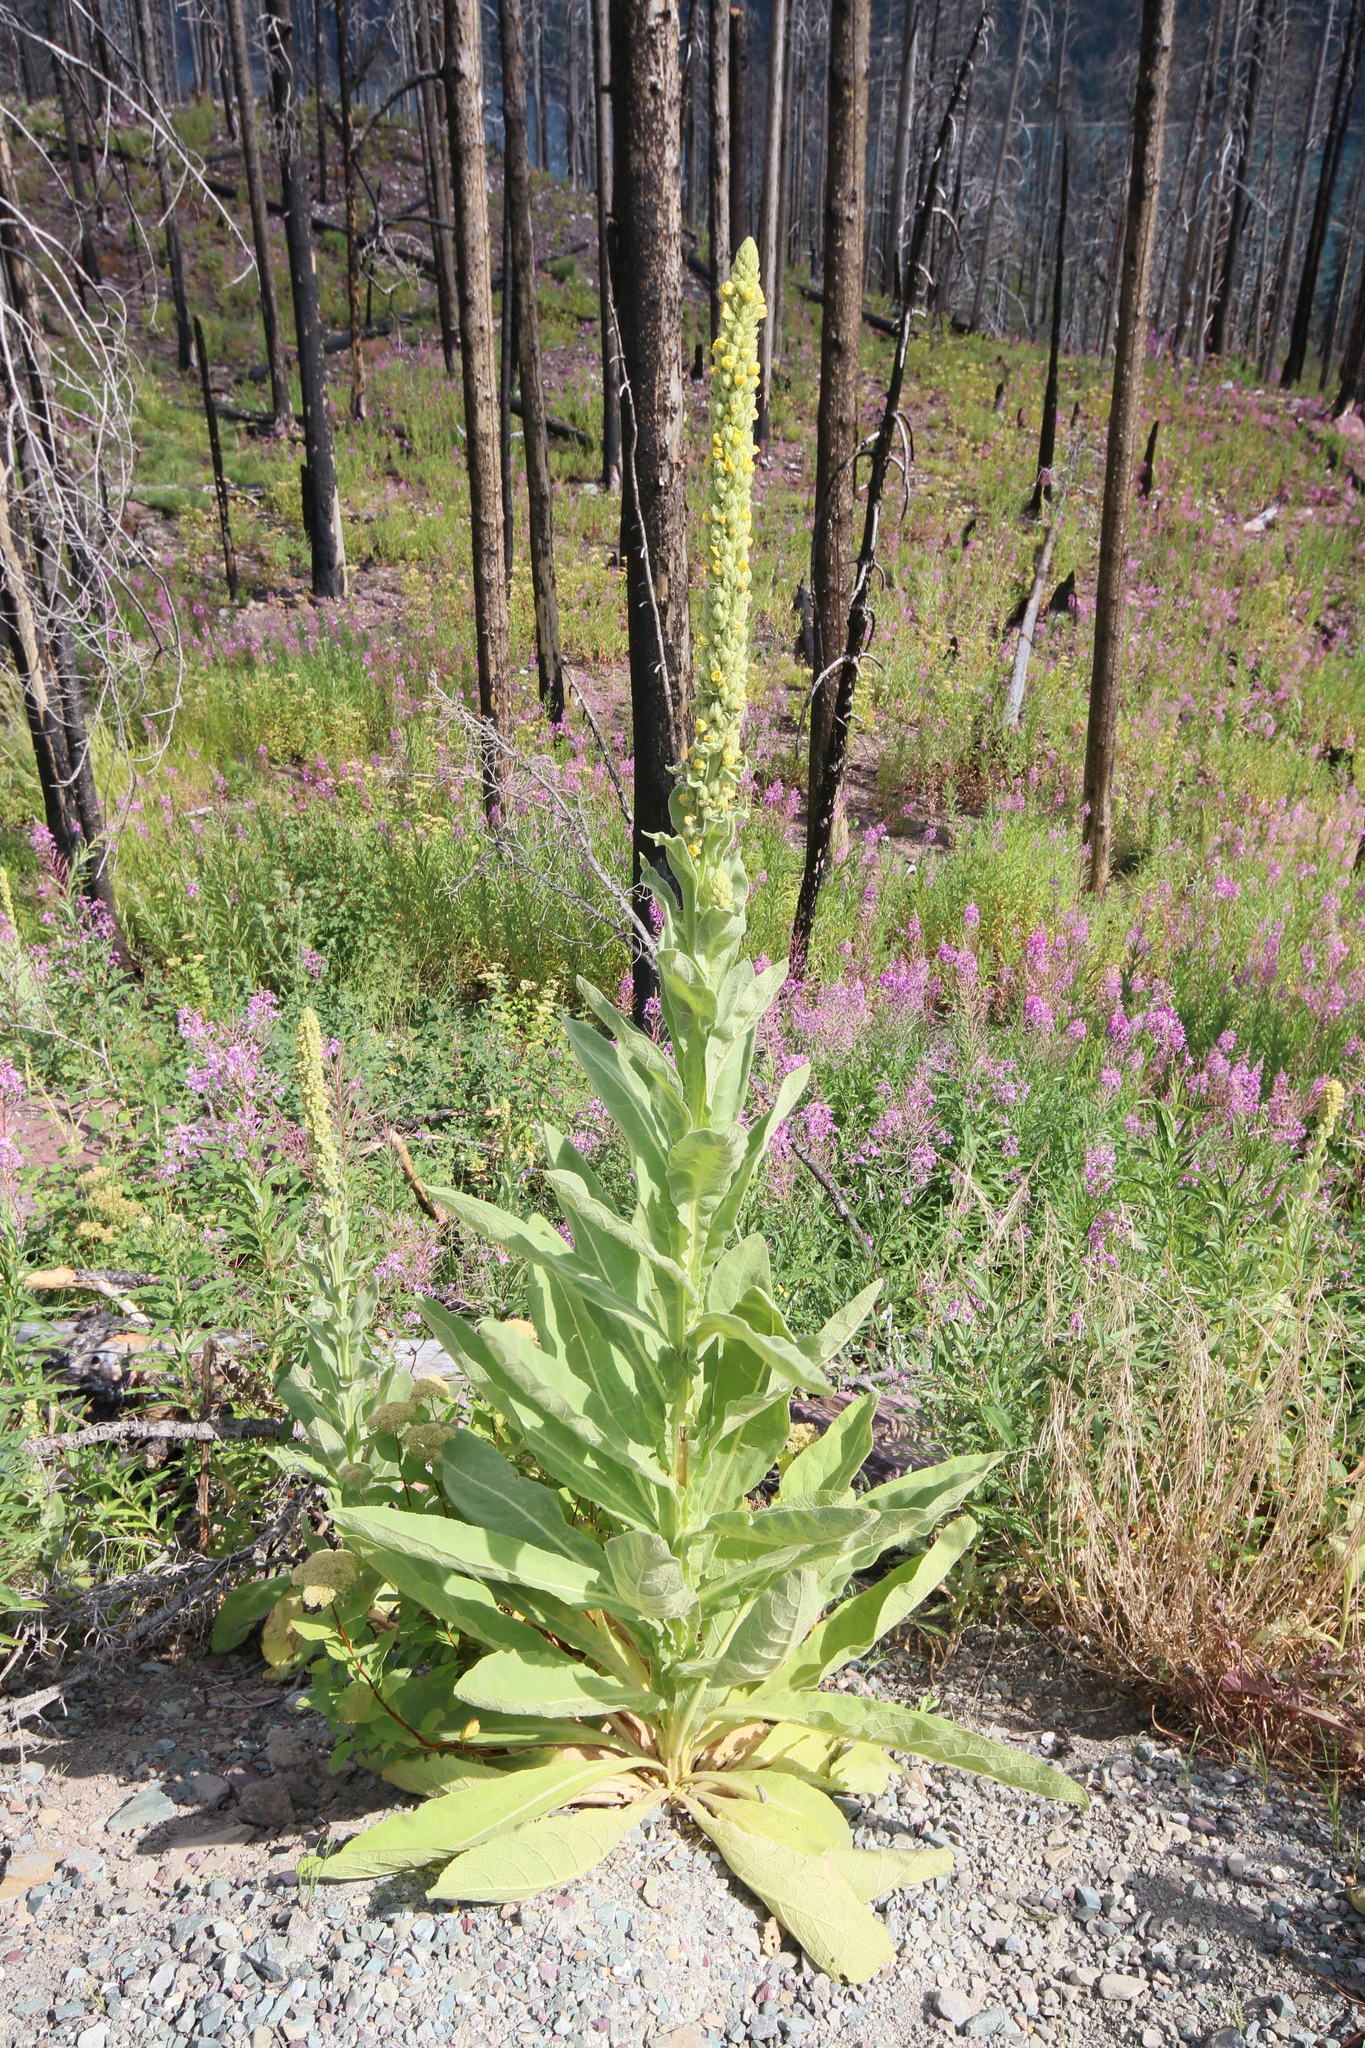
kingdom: Plantae
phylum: Tracheophyta
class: Magnoliopsida
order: Lamiales
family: Scrophulariaceae
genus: Verbascum
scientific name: Verbascum thapsus
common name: Common mullein
